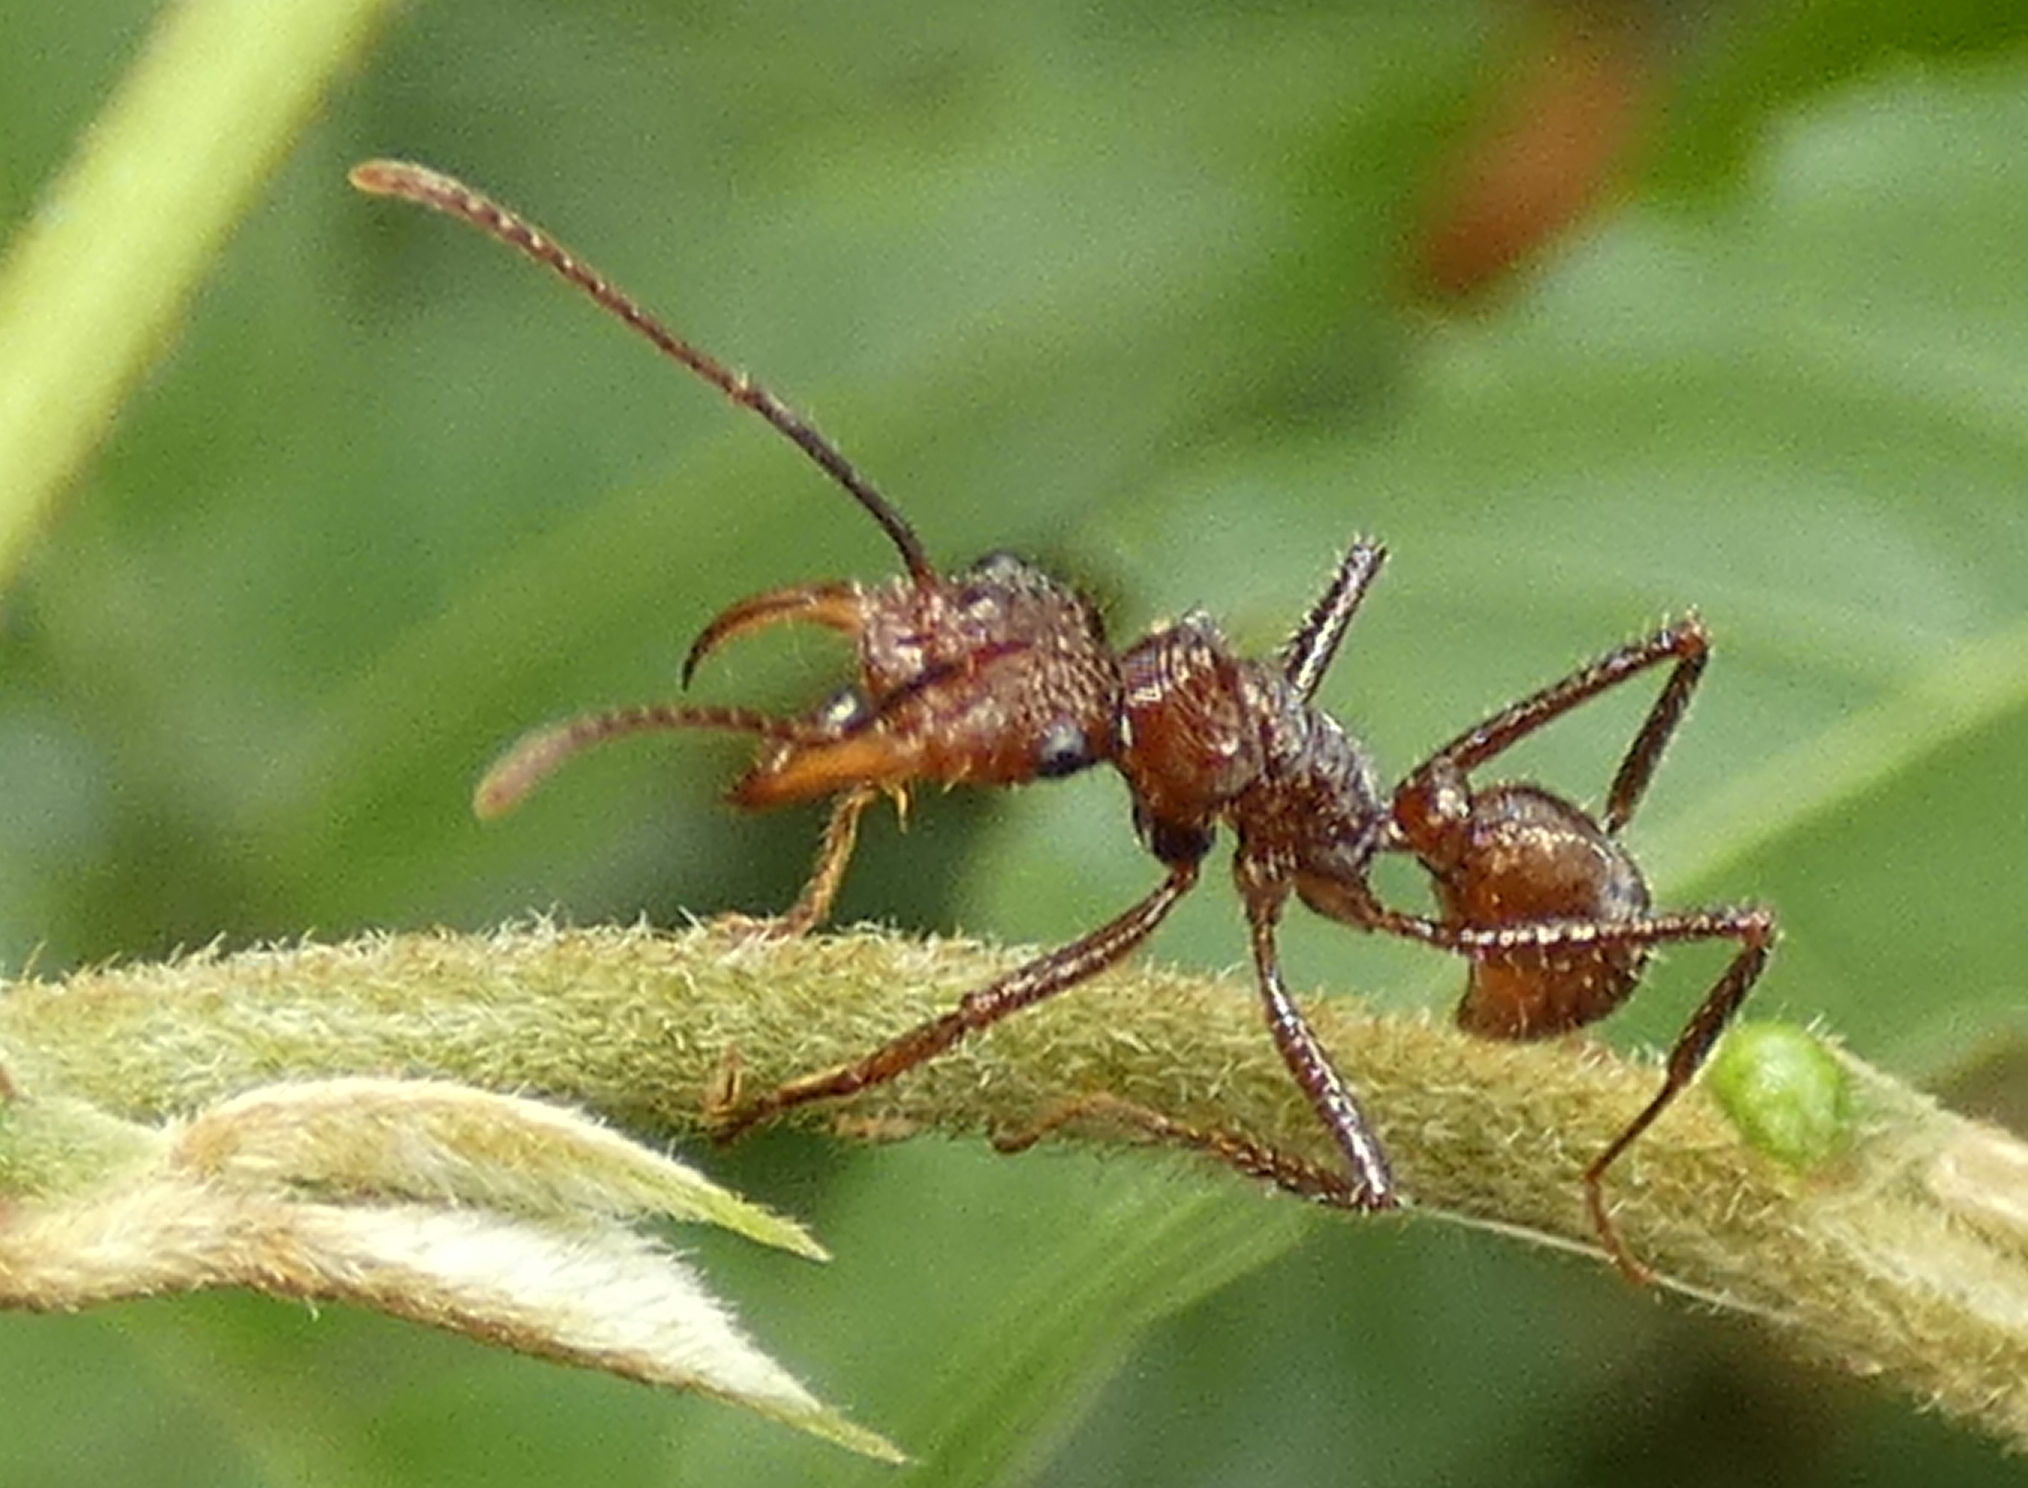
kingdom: Animalia
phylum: Arthropoda
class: Insecta
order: Hymenoptera
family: Formicidae
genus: Ectatomma
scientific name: Ectatomma tuberculatum
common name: Ant
